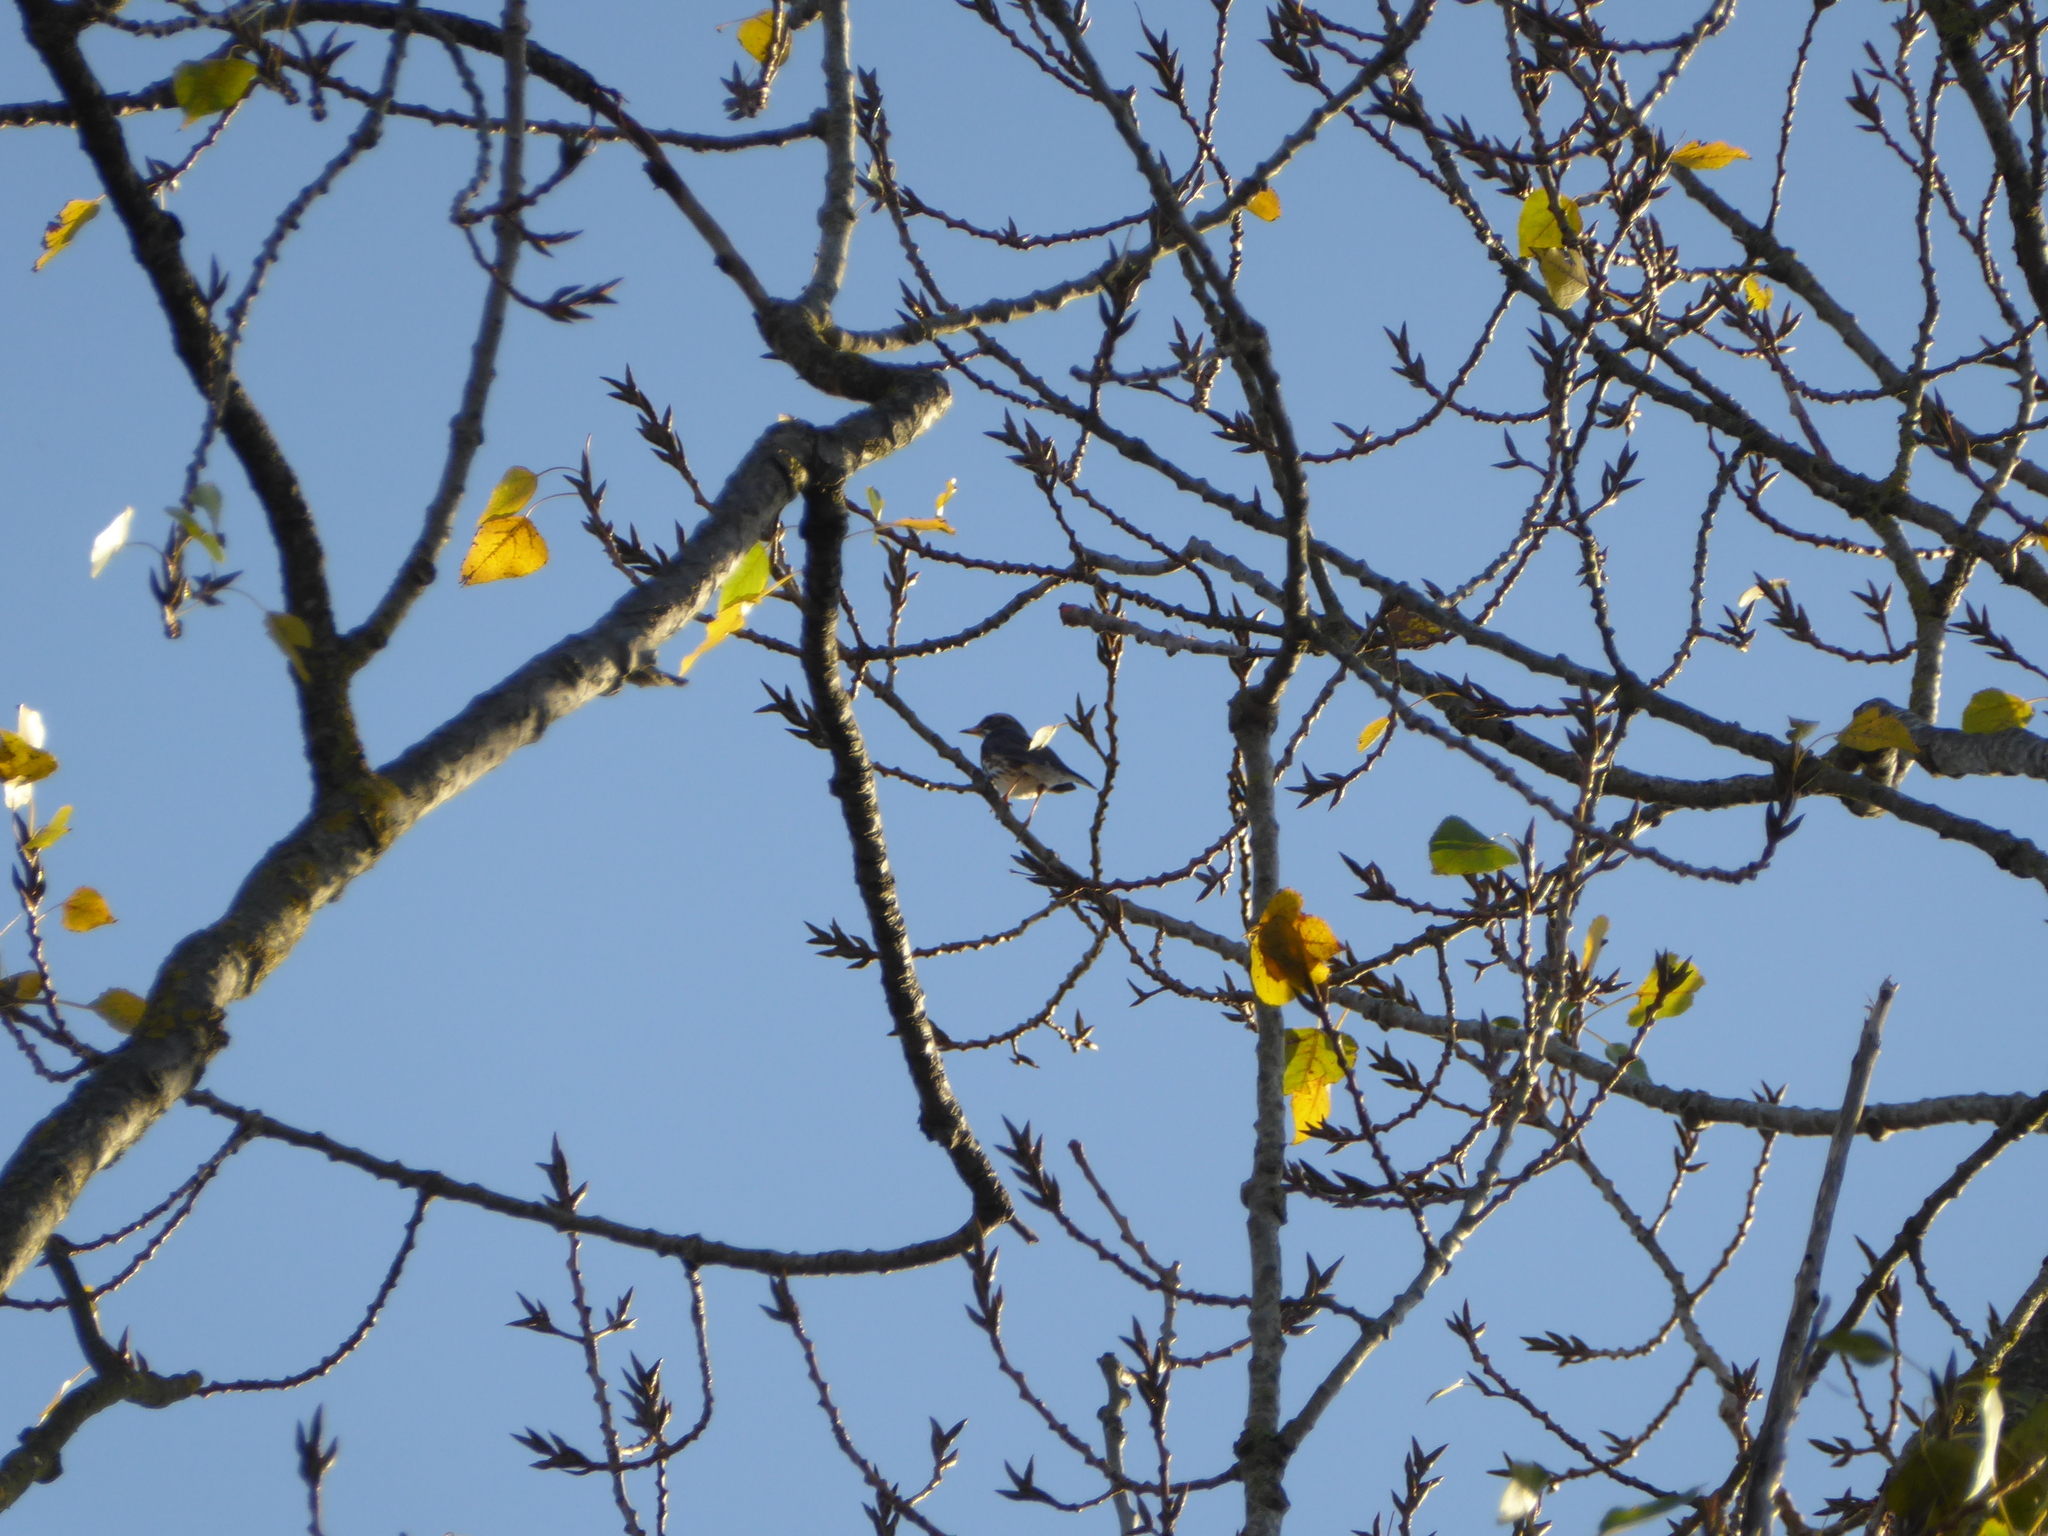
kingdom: Animalia
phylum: Chordata
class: Aves
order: Passeriformes
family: Turdidae
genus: Turdus
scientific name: Turdus iliacus
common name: Redwing
